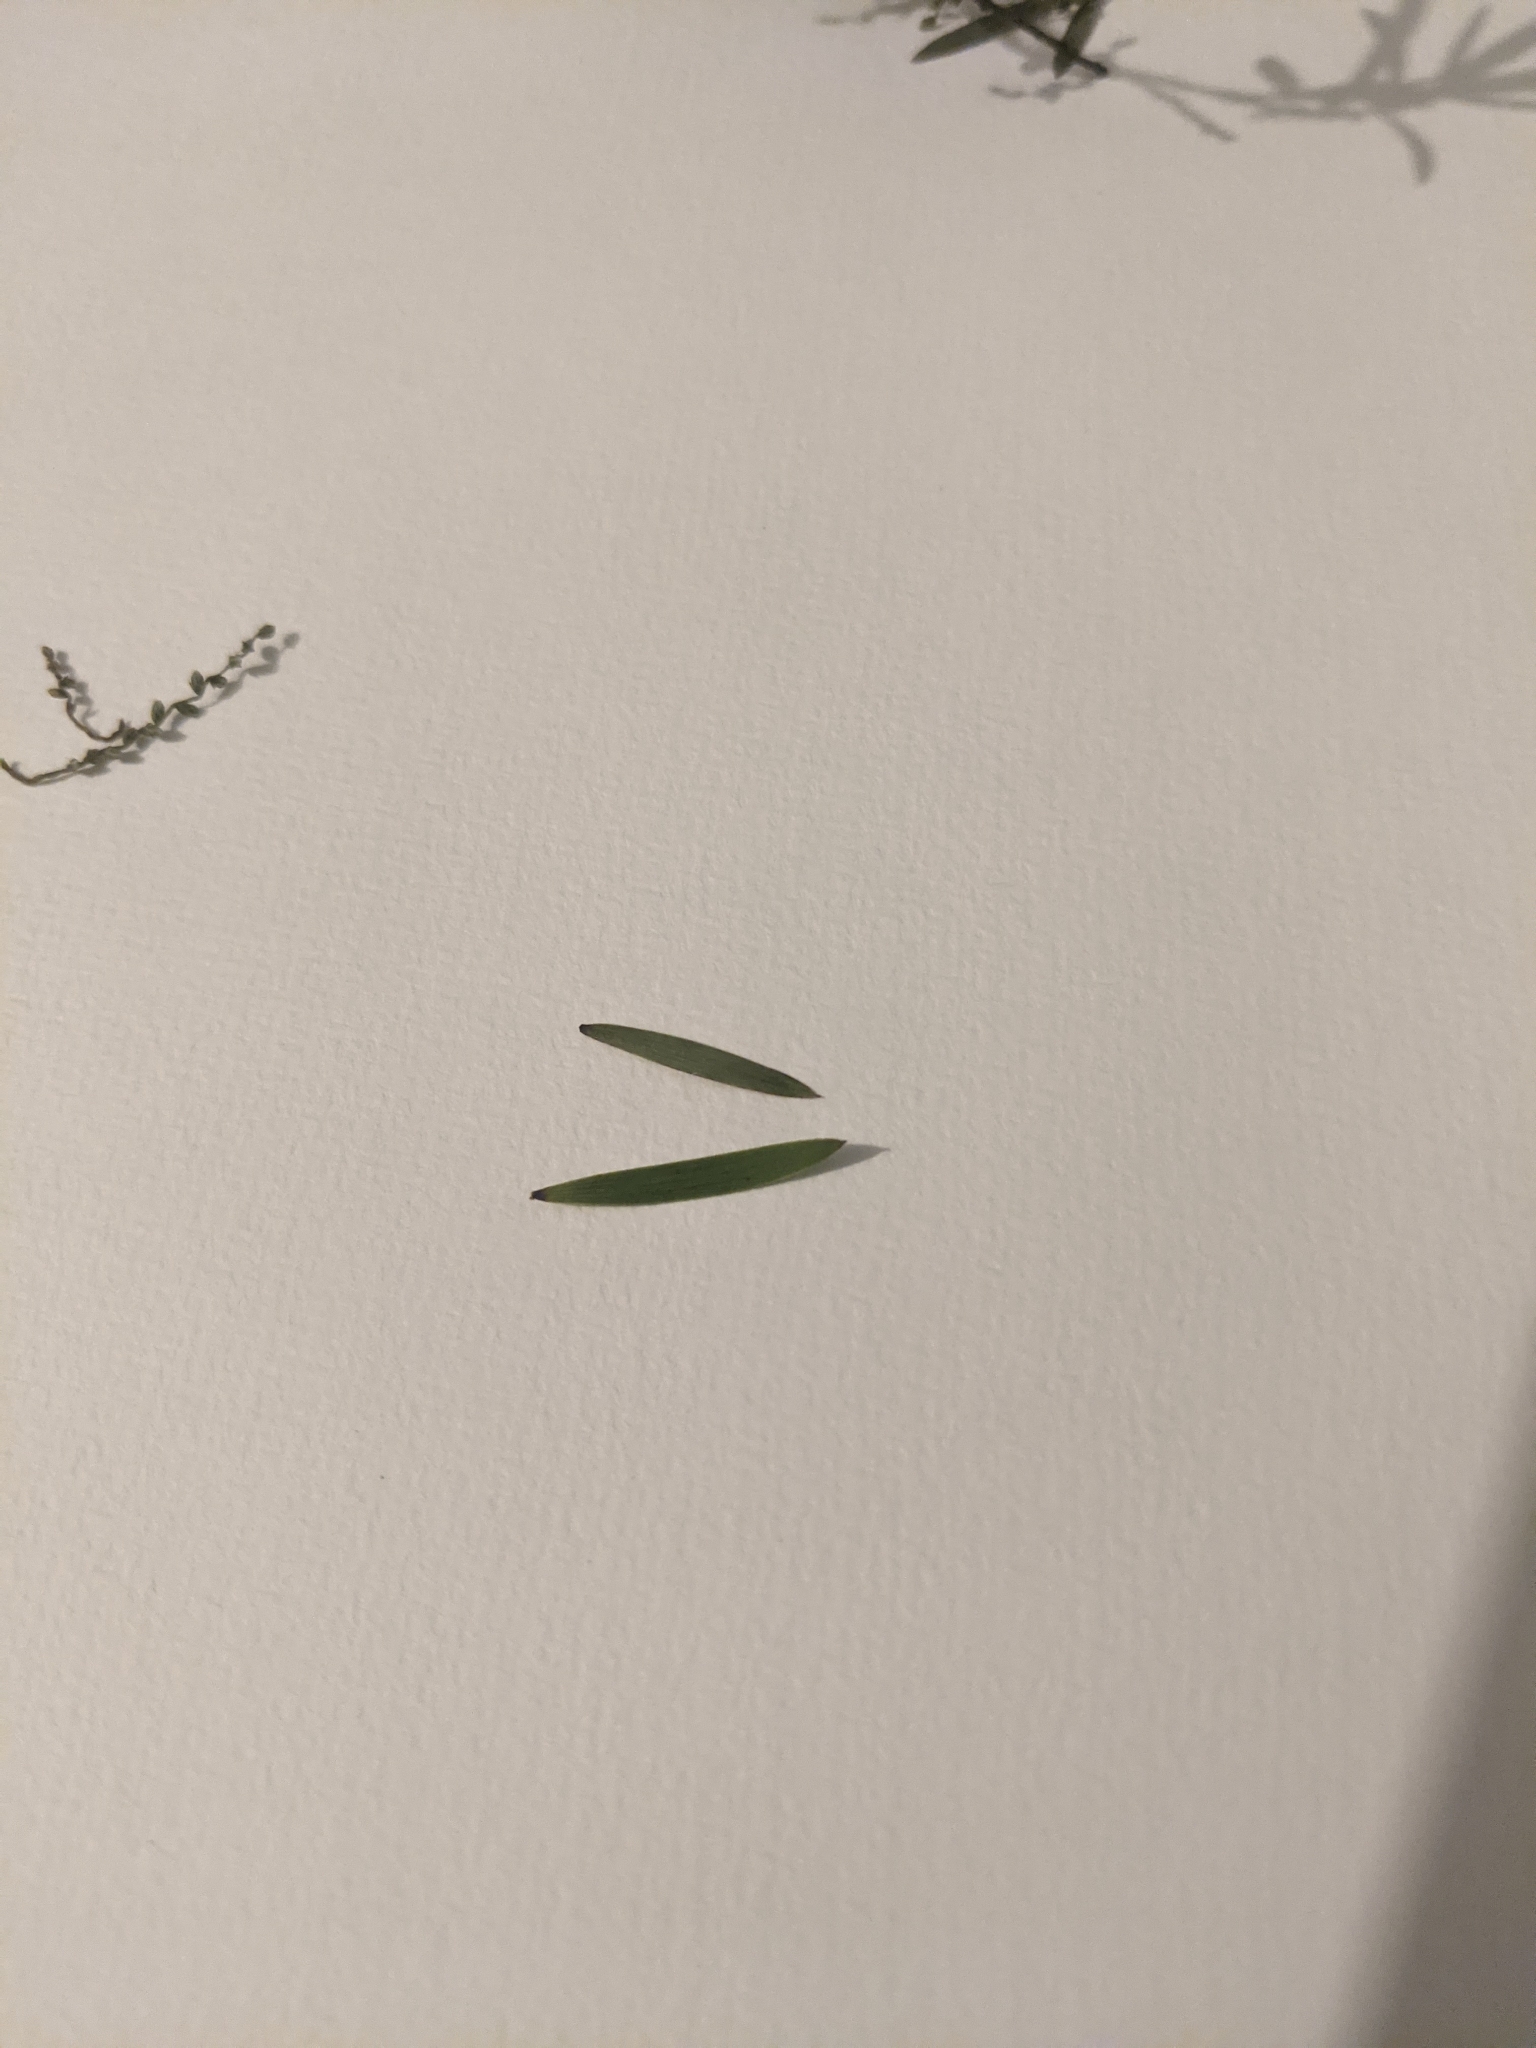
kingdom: Plantae
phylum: Tracheophyta
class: Magnoliopsida
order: Ericales
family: Ericaceae
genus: Leucopogon
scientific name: Leucopogon fasciculatus
